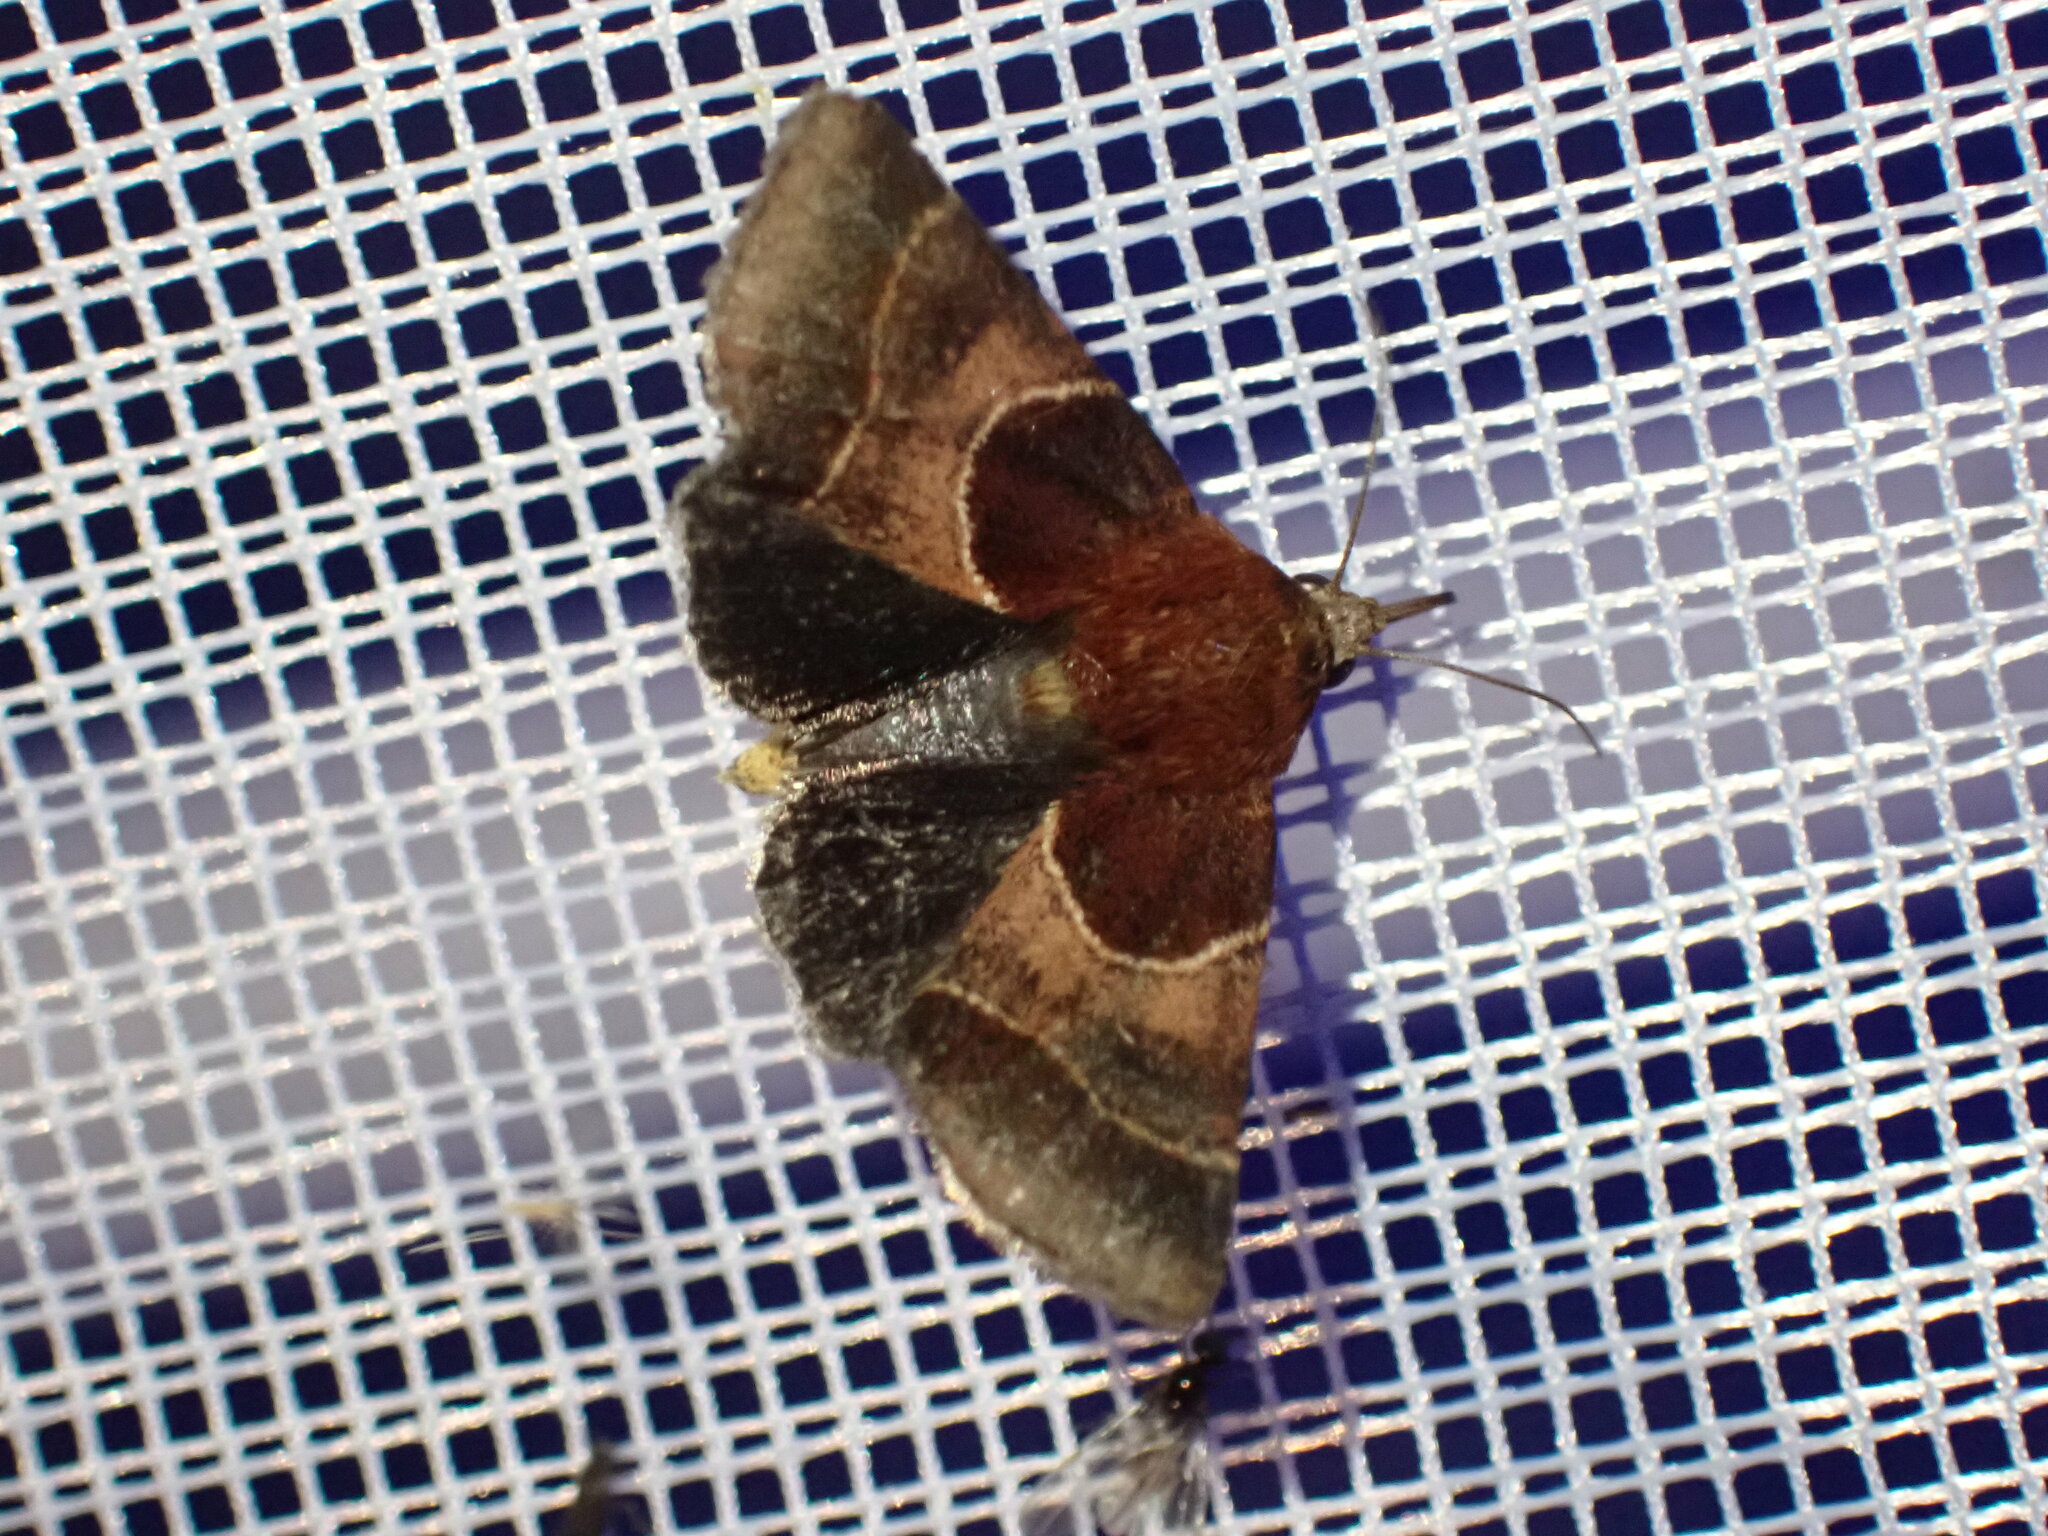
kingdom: Animalia
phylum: Arthropoda
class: Insecta
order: Lepidoptera
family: Noctuidae
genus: Schinia
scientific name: Schinia arcigera
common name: Arcigera flower moth
